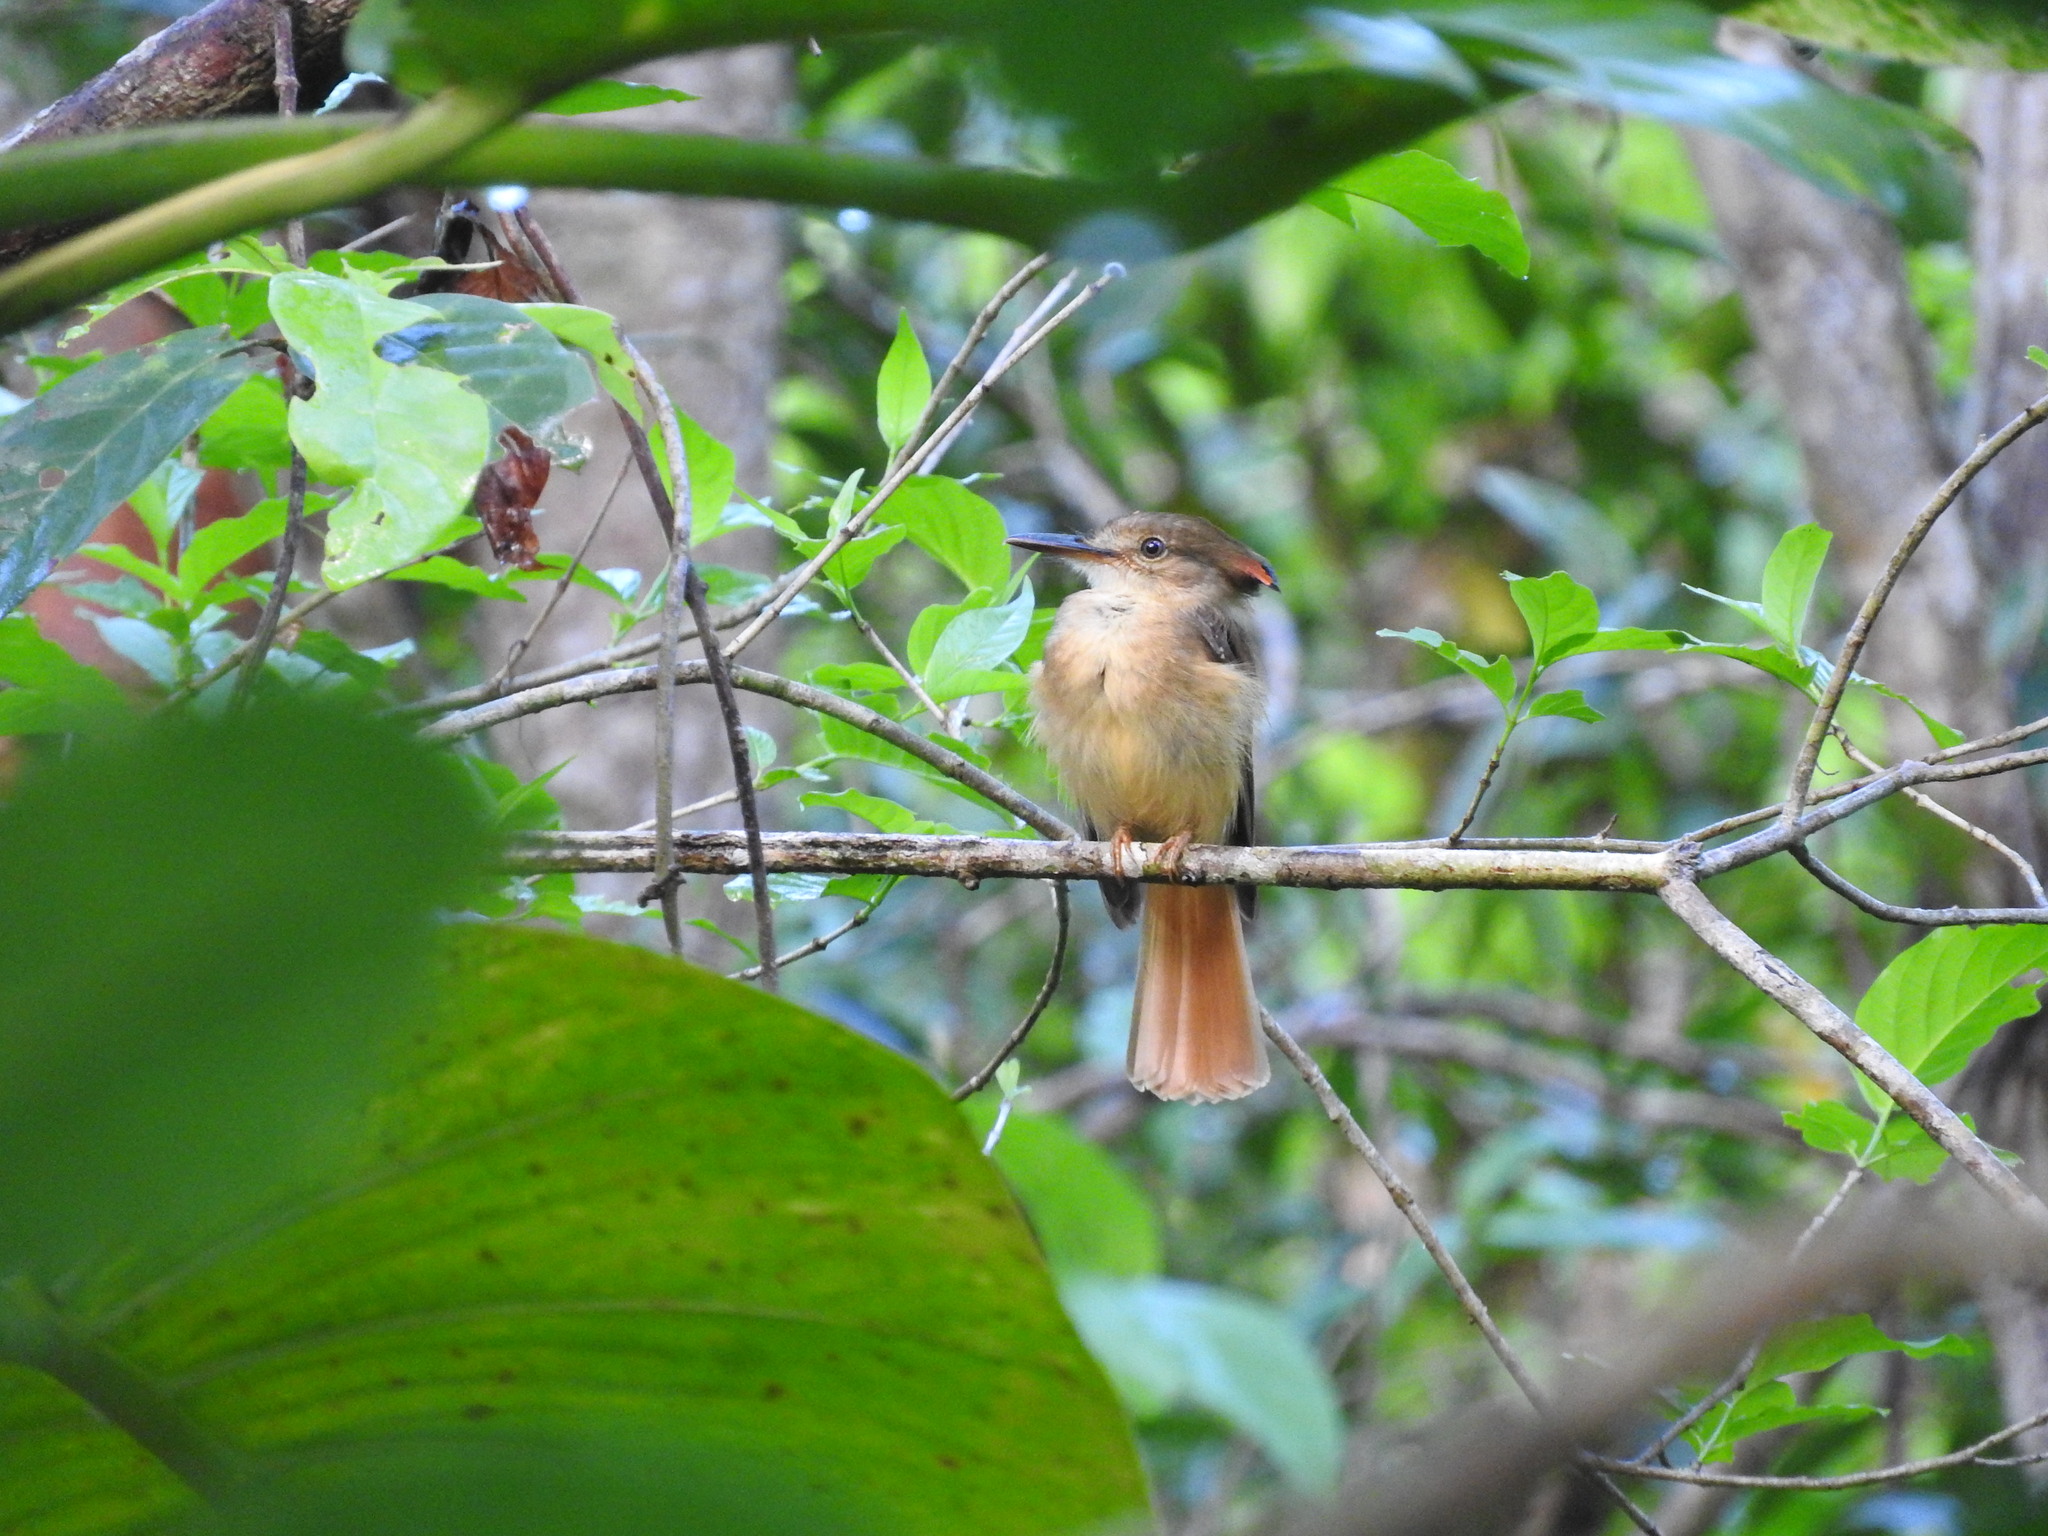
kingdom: Animalia
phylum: Chordata
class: Aves
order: Passeriformes
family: Tyrannidae
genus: Onychorhynchus
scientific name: Onychorhynchus coronatus
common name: Royal flycatcher
